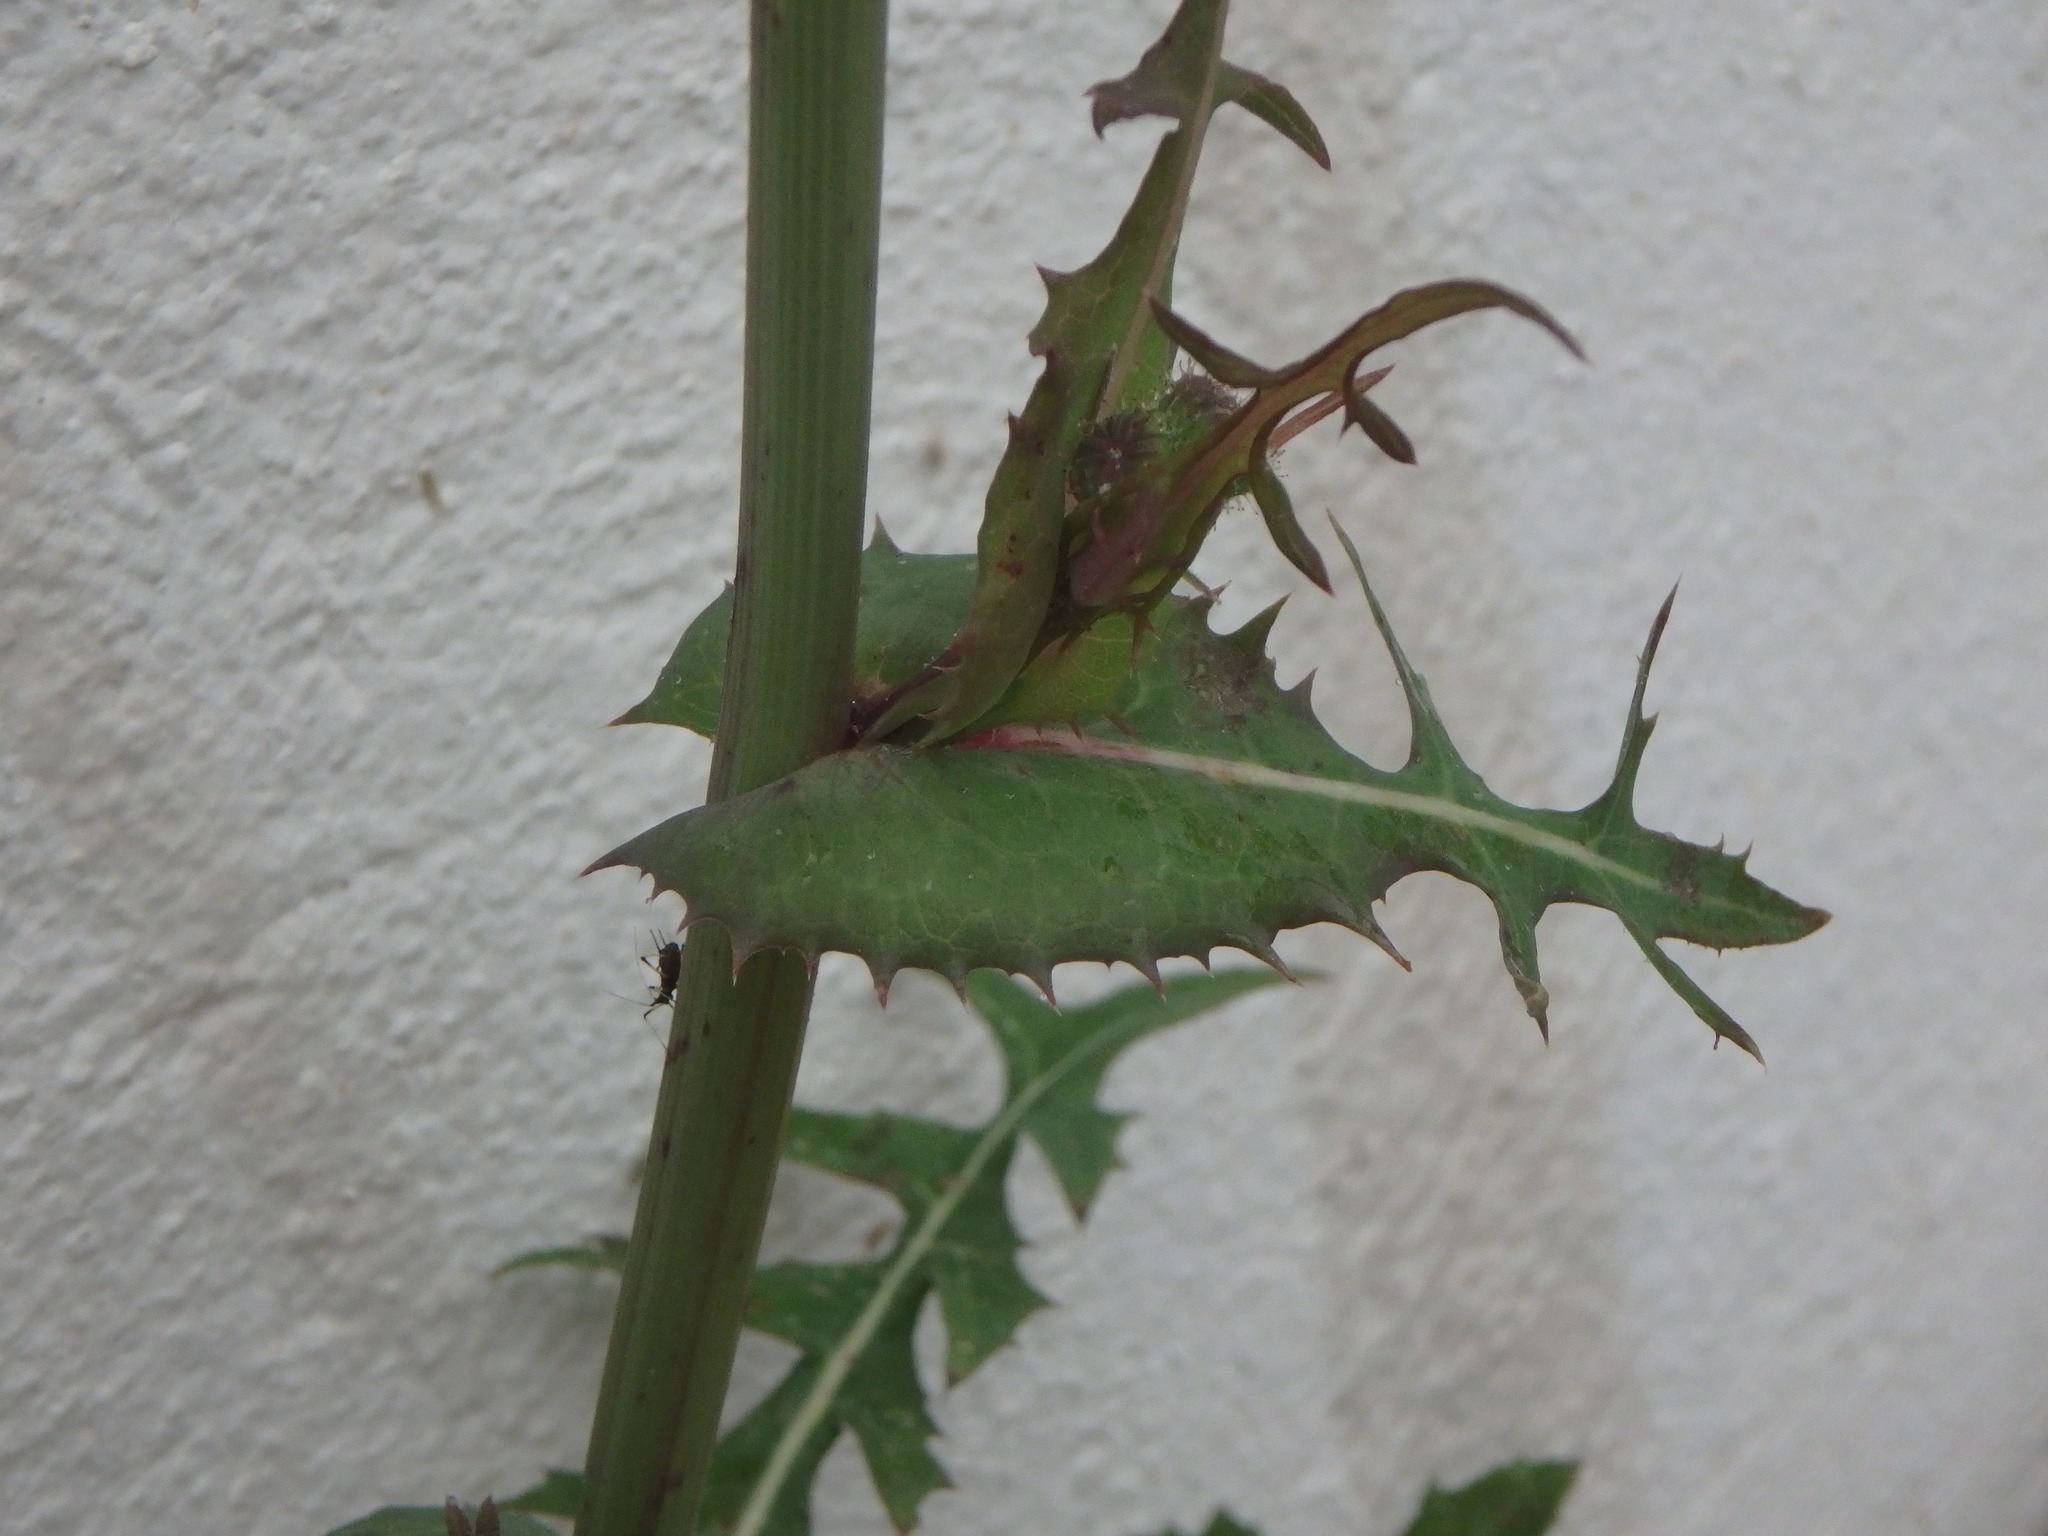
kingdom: Plantae
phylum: Tracheophyta
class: Magnoliopsida
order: Asterales
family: Asteraceae
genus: Sonchus
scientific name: Sonchus oleraceus
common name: Common sowthistle
